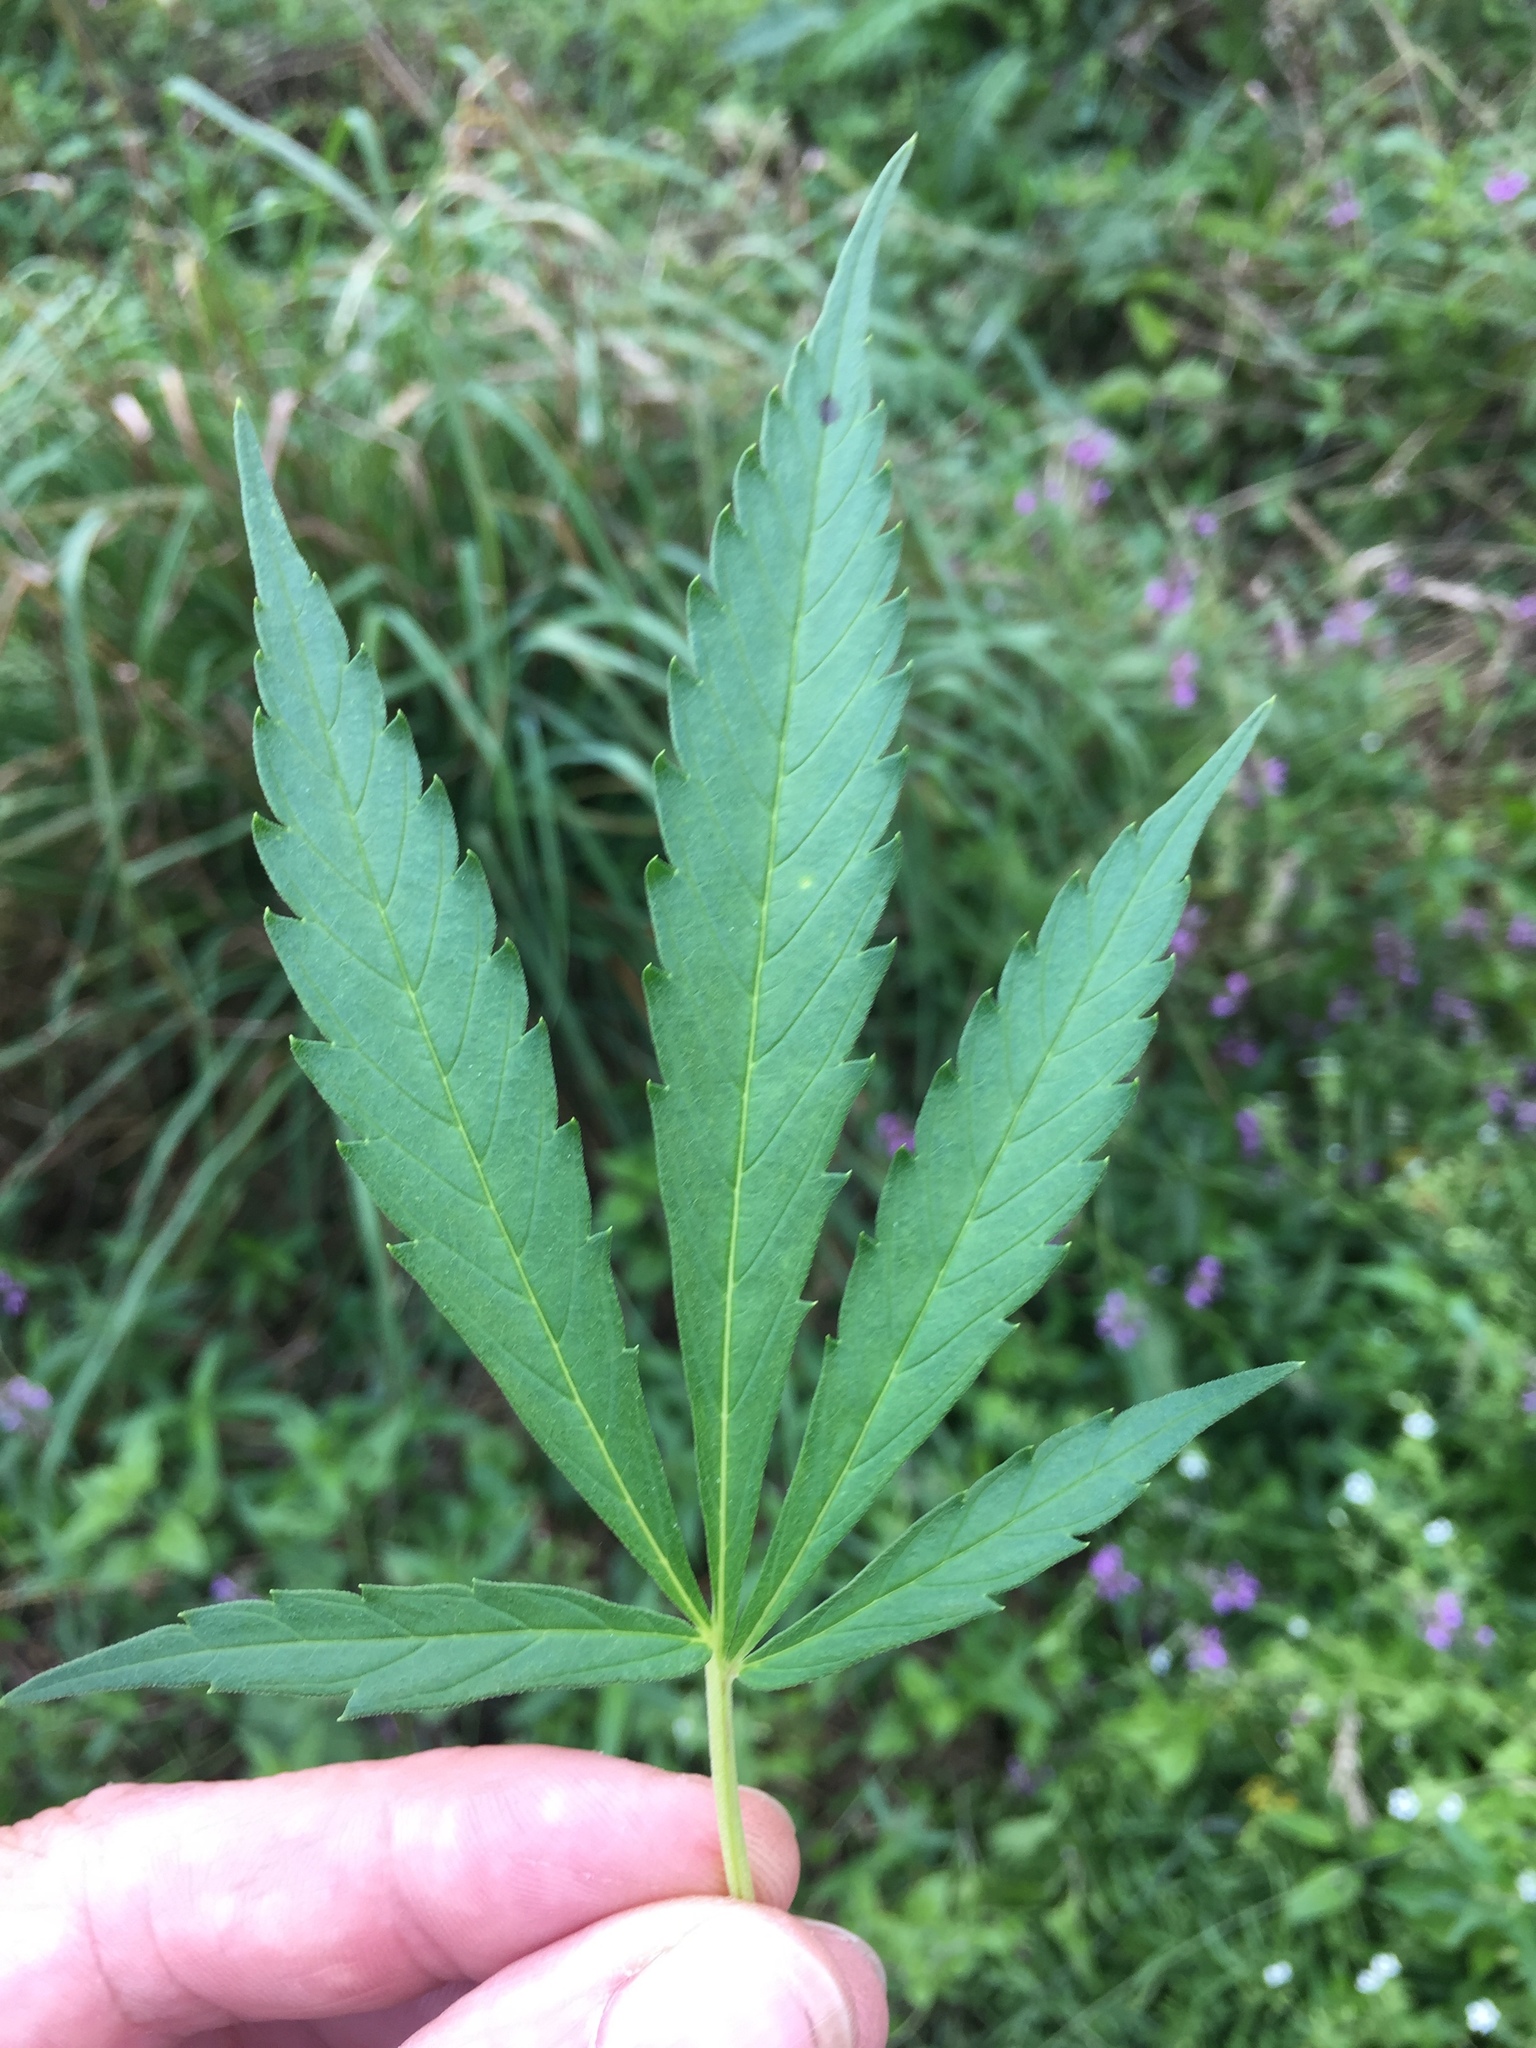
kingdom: Plantae
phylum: Tracheophyta
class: Magnoliopsida
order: Rosales
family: Cannabaceae
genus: Cannabis
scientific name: Cannabis sativa
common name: Hemp
